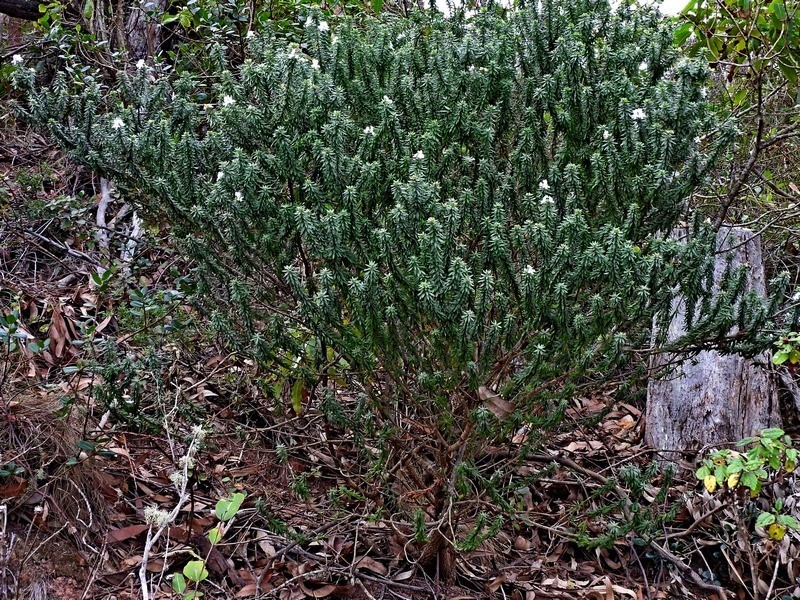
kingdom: Plantae
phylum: Tracheophyta
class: Magnoliopsida
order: Lamiales
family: Lamiaceae
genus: Westringia
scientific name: Westringia fruticosa
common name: Coastal-rosemary
